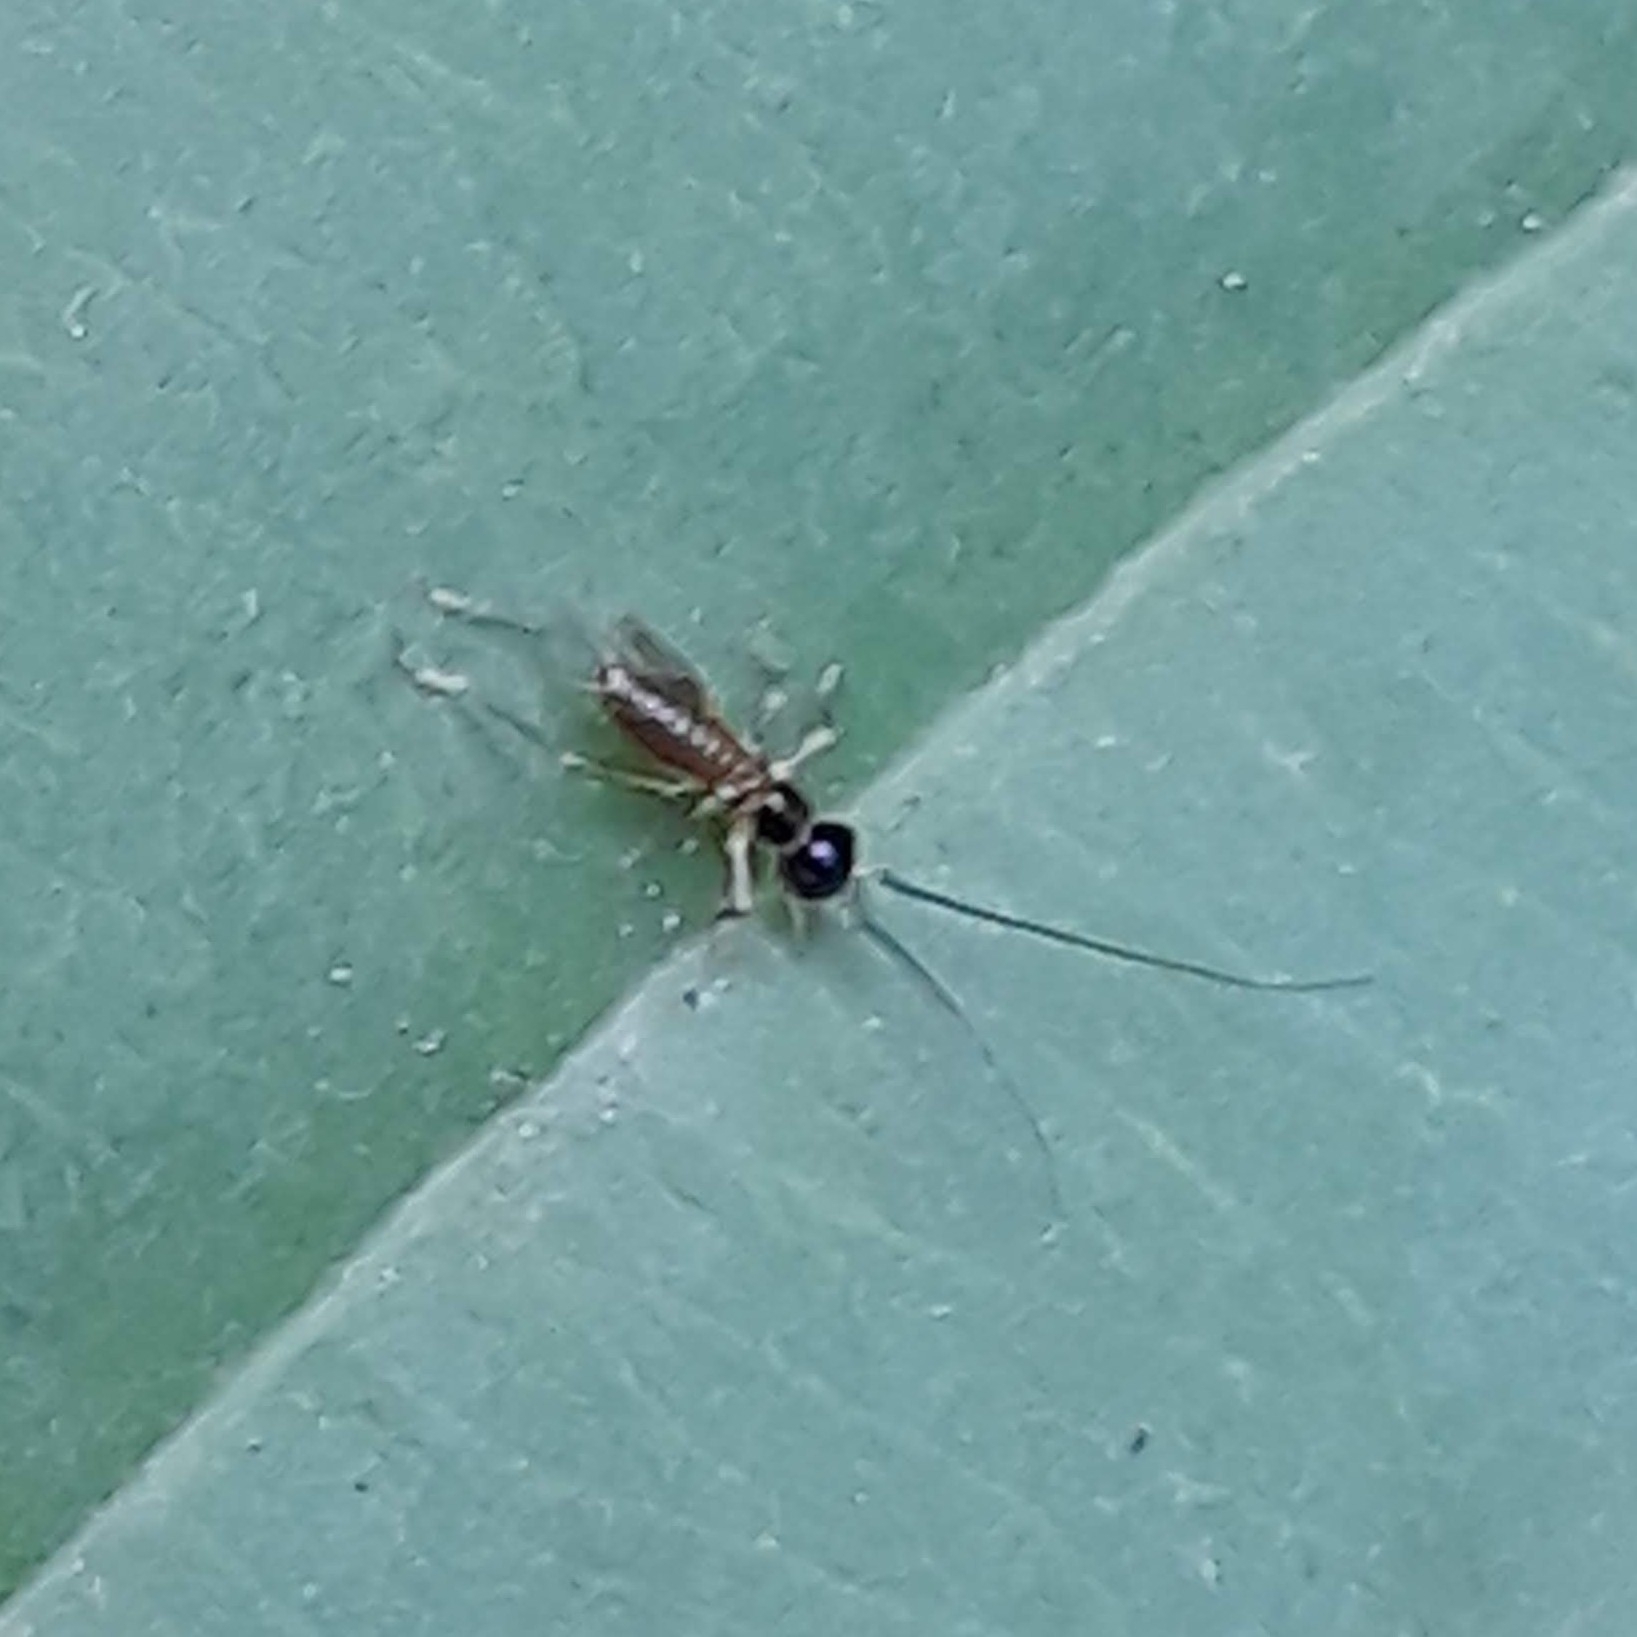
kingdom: Animalia
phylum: Arthropoda
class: Insecta
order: Orthoptera
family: Trigonidiidae
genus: Phyllopalpus
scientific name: Phyllopalpus pulchellus
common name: Handsome trig
